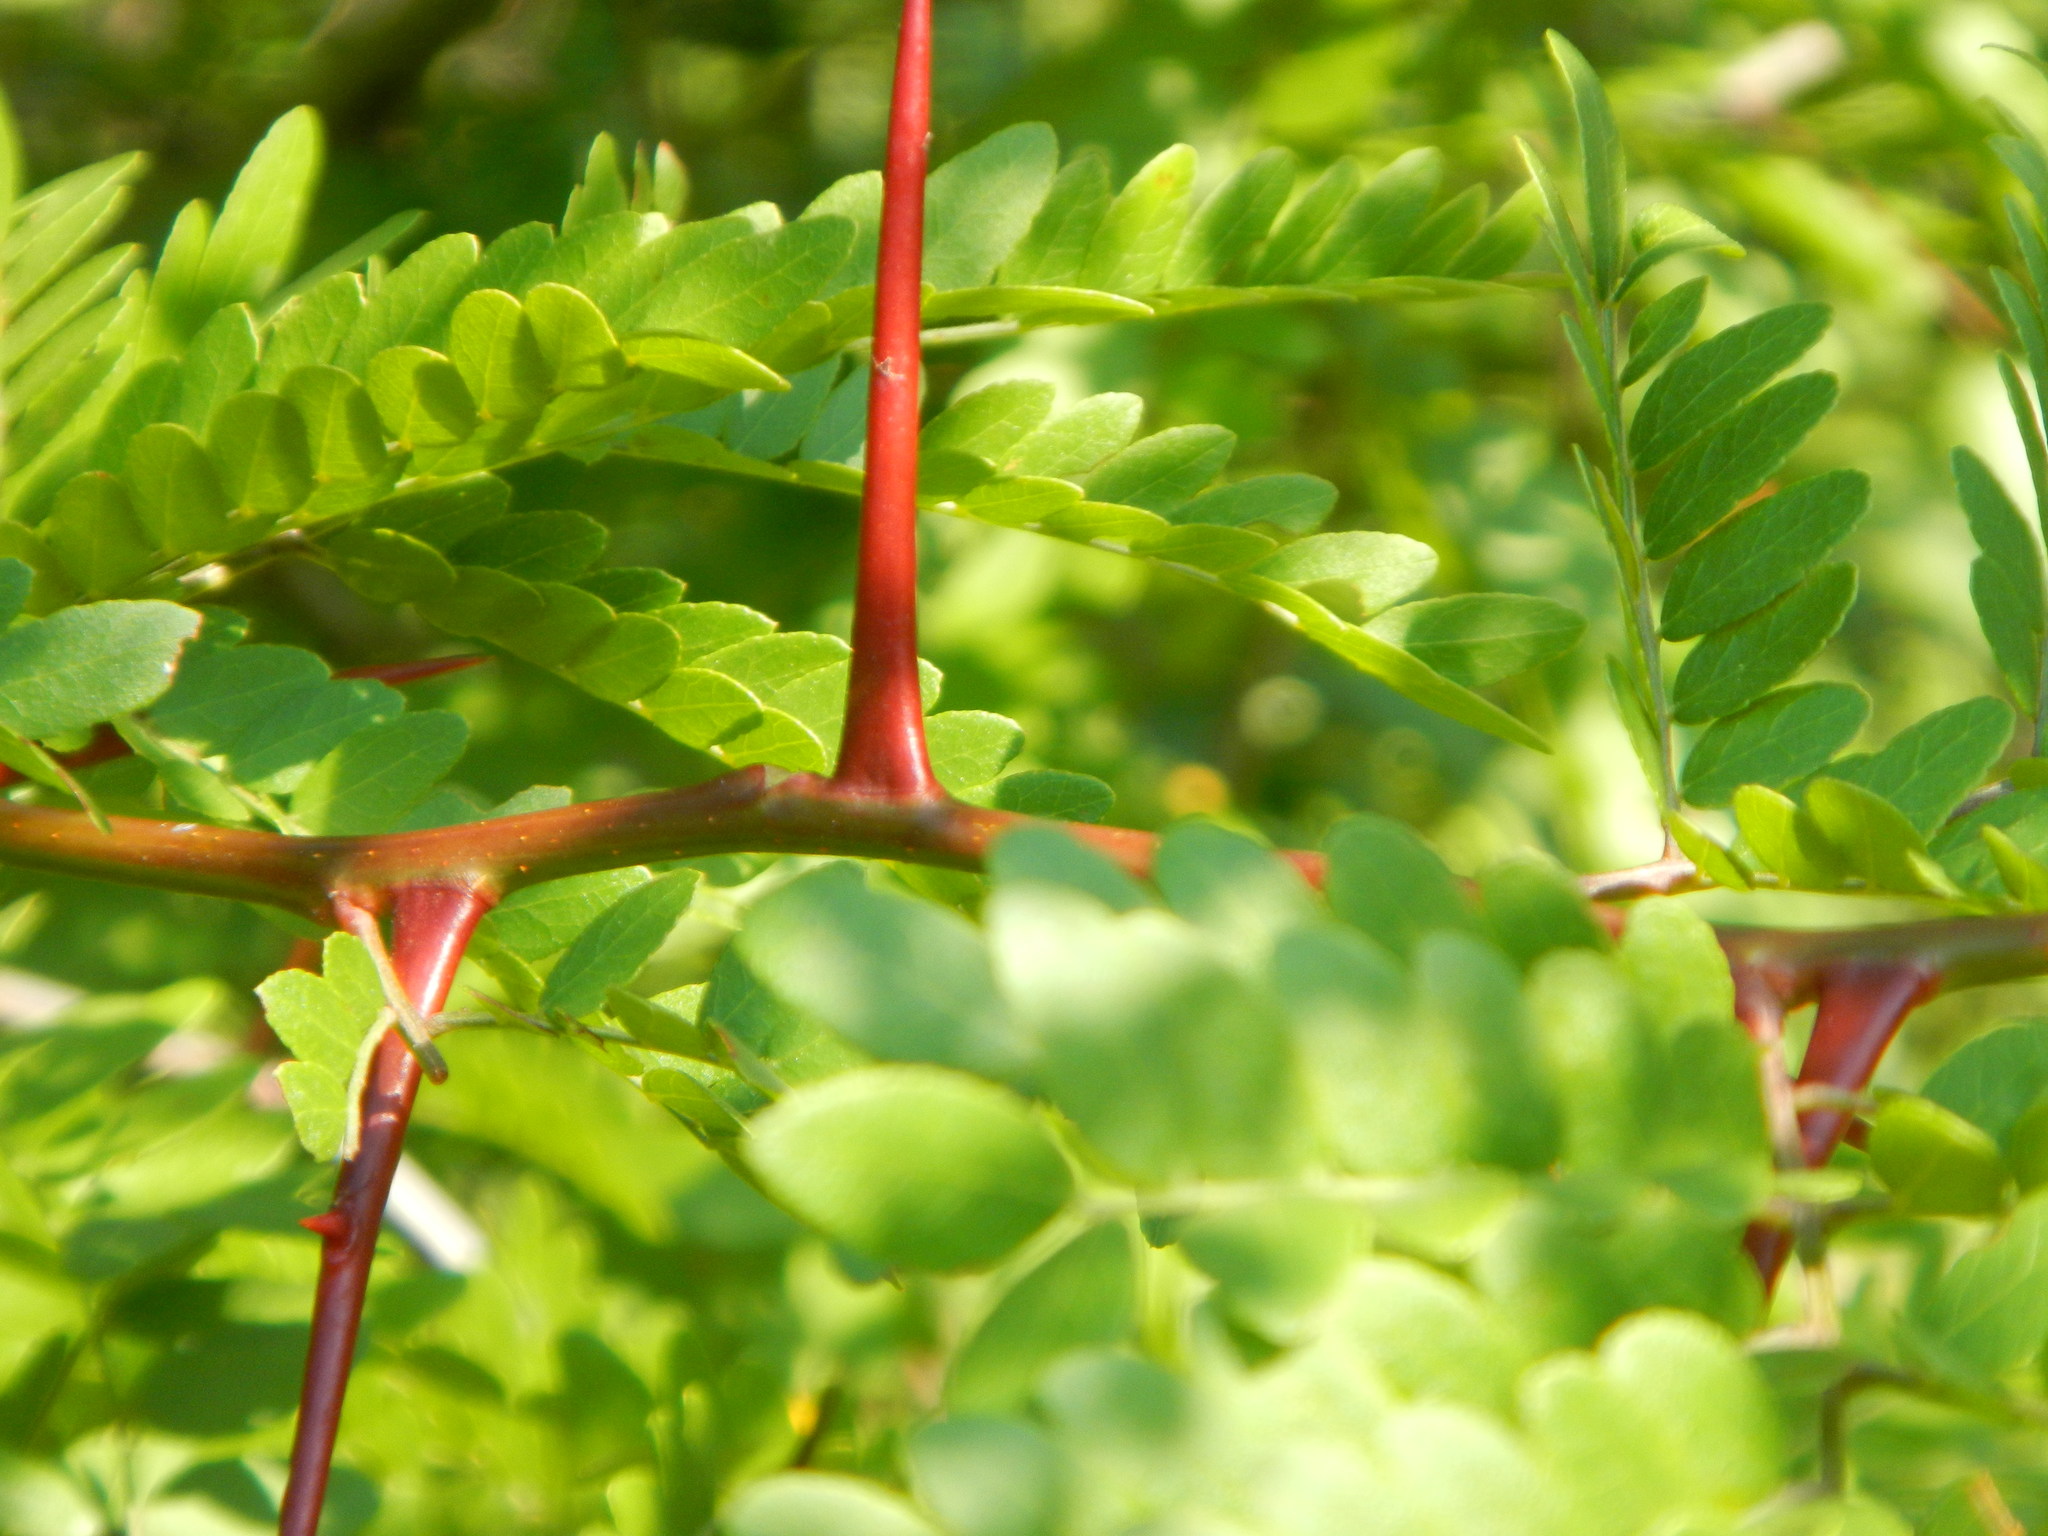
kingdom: Plantae
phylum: Tracheophyta
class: Magnoliopsida
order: Fabales
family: Fabaceae
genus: Gleditsia
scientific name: Gleditsia triacanthos
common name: Common honeylocust
